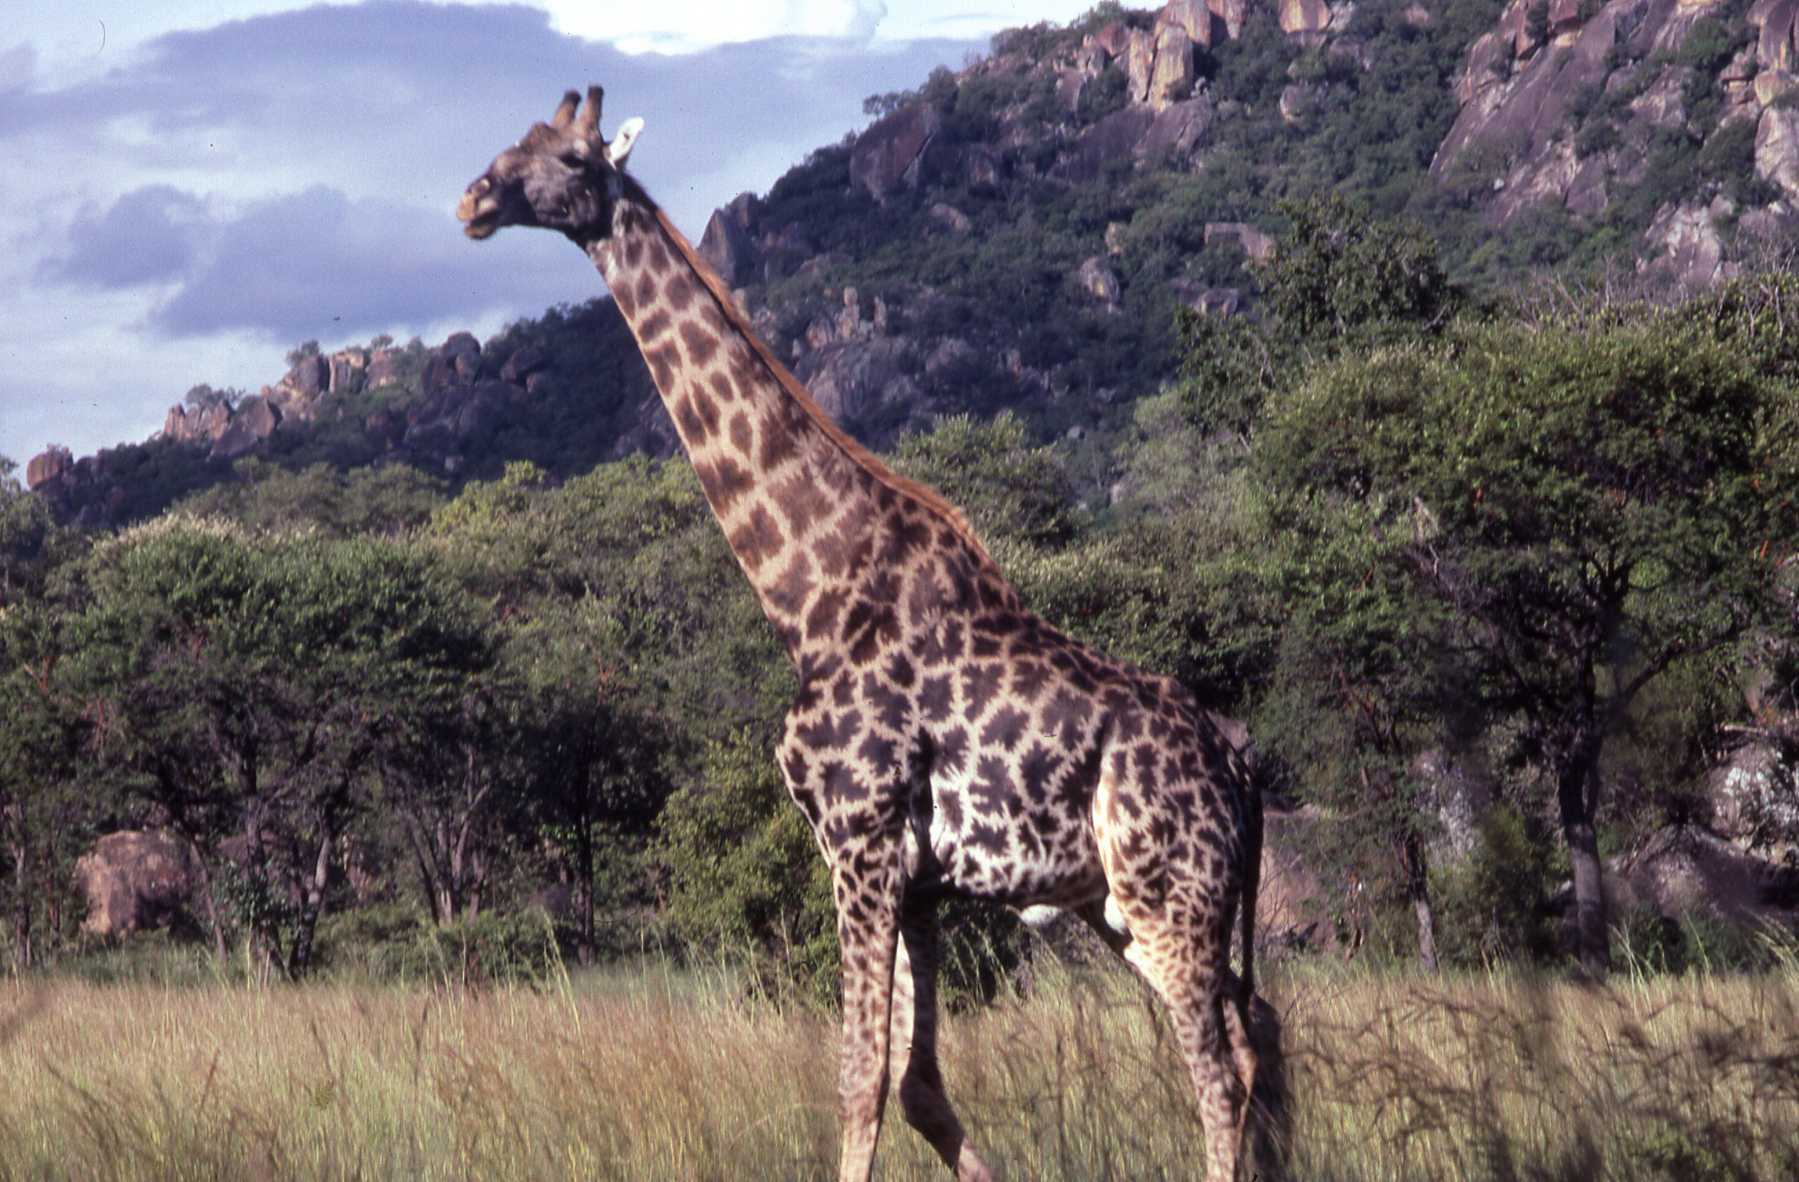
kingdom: Animalia
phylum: Chordata
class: Mammalia
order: Artiodactyla
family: Giraffidae
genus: Giraffa
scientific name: Giraffa giraffa
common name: Southern giraffe
